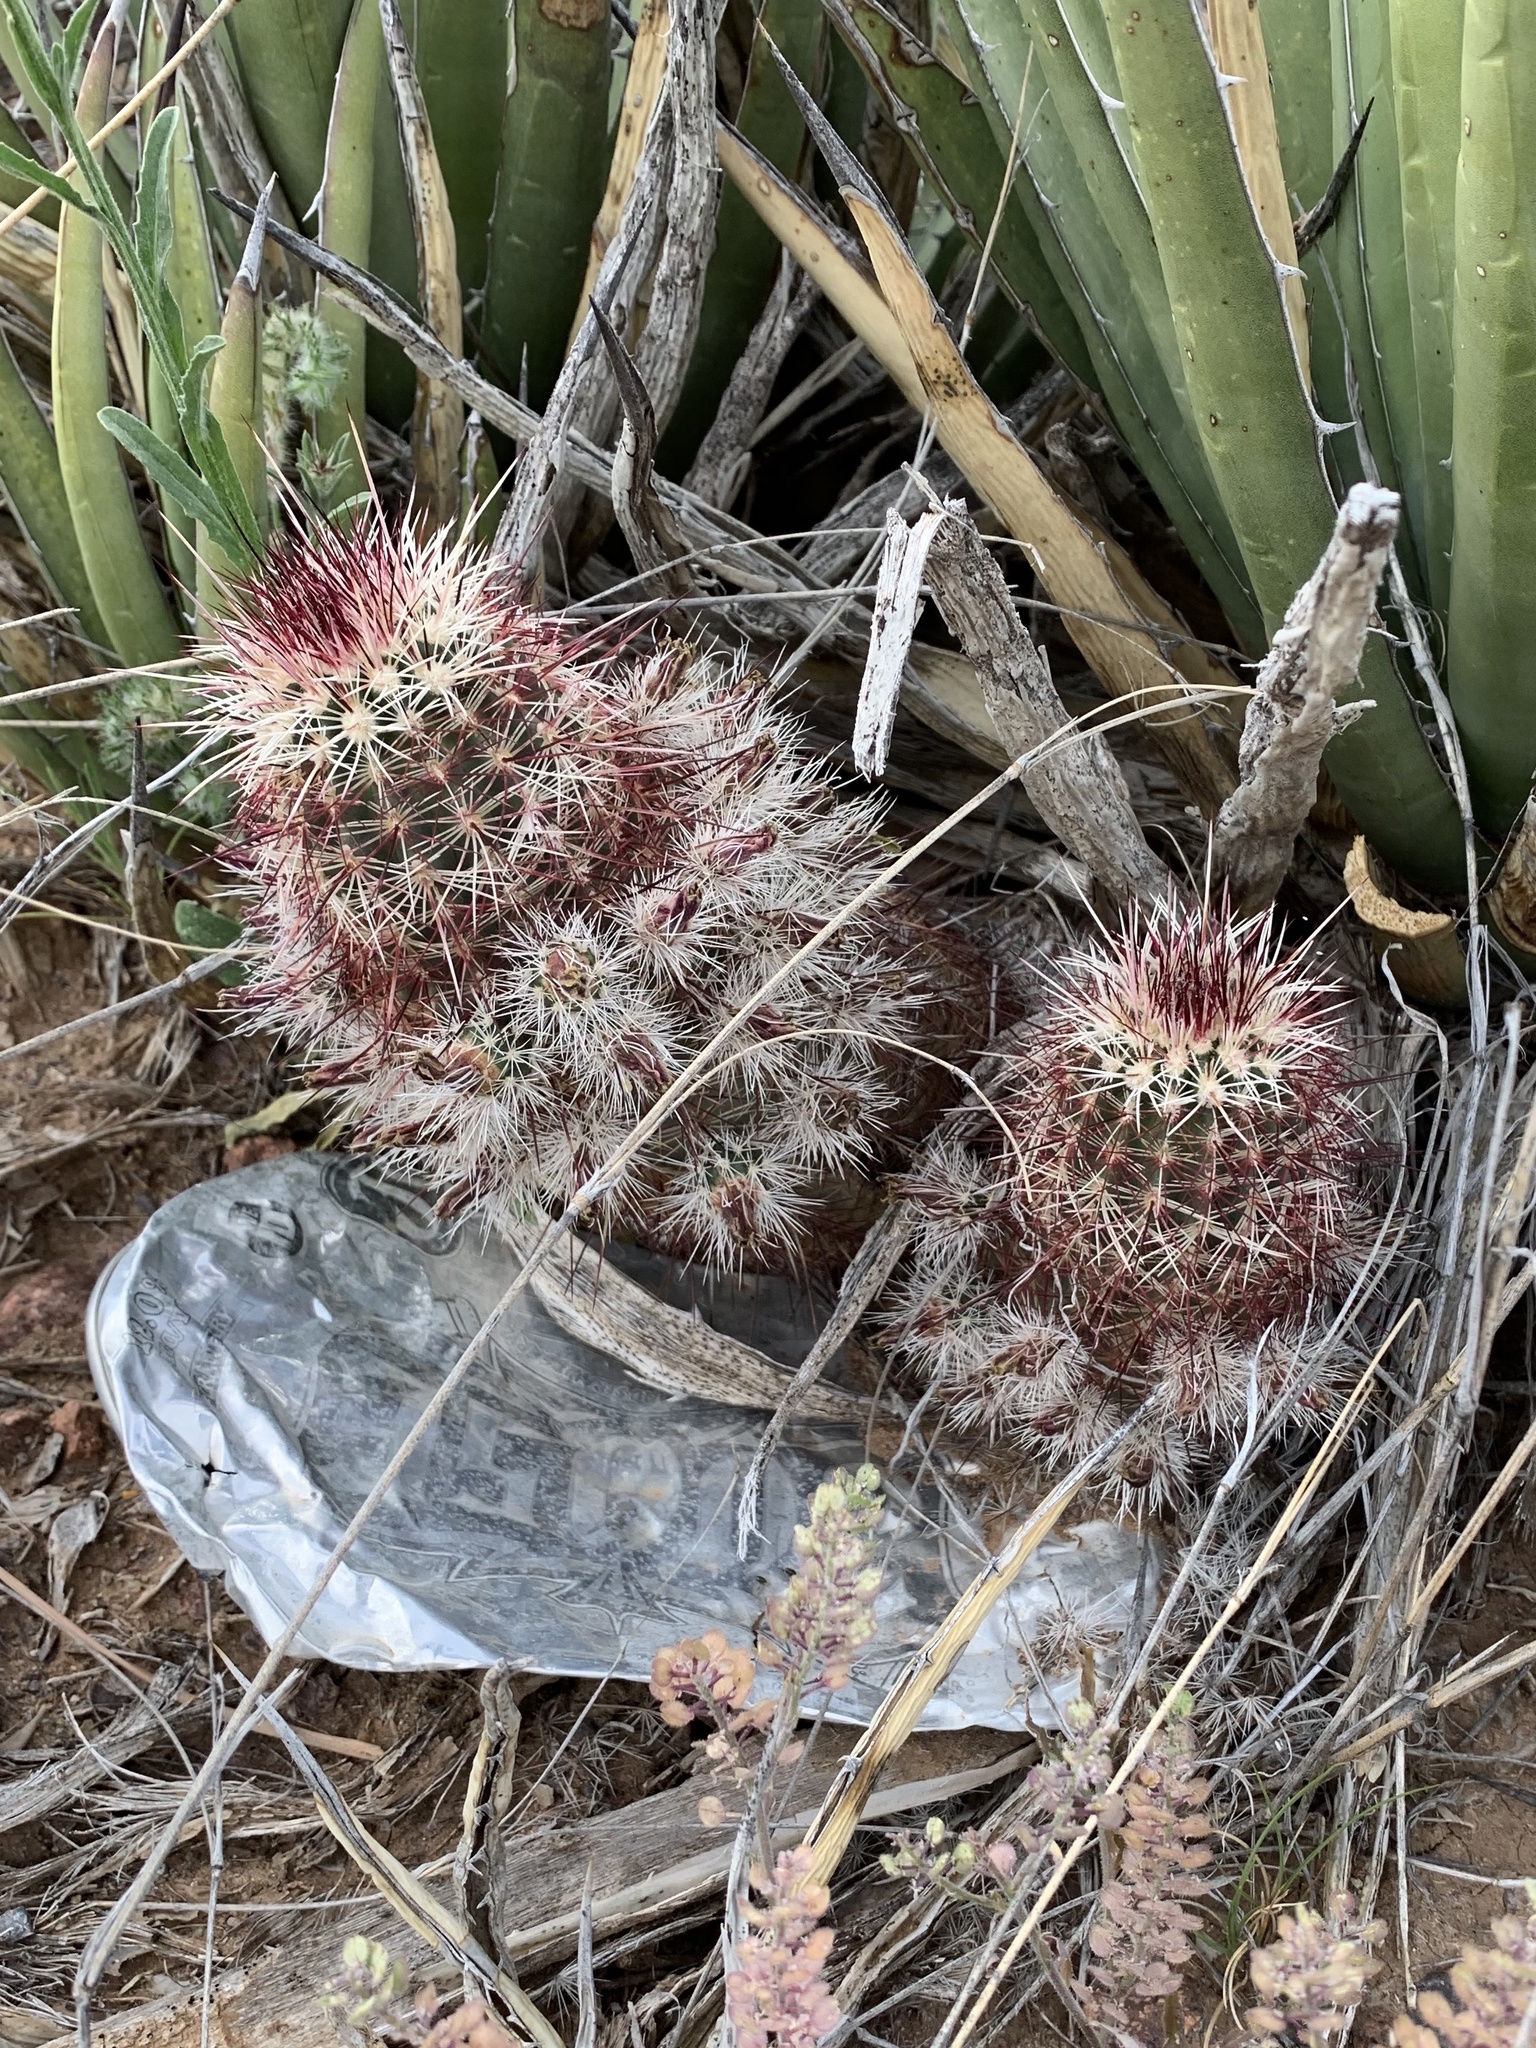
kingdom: Plantae
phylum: Tracheophyta
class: Magnoliopsida
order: Caryophyllales
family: Cactaceae
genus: Echinocereus
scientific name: Echinocereus viridiflorus
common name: Nylon hedgehog cactus
